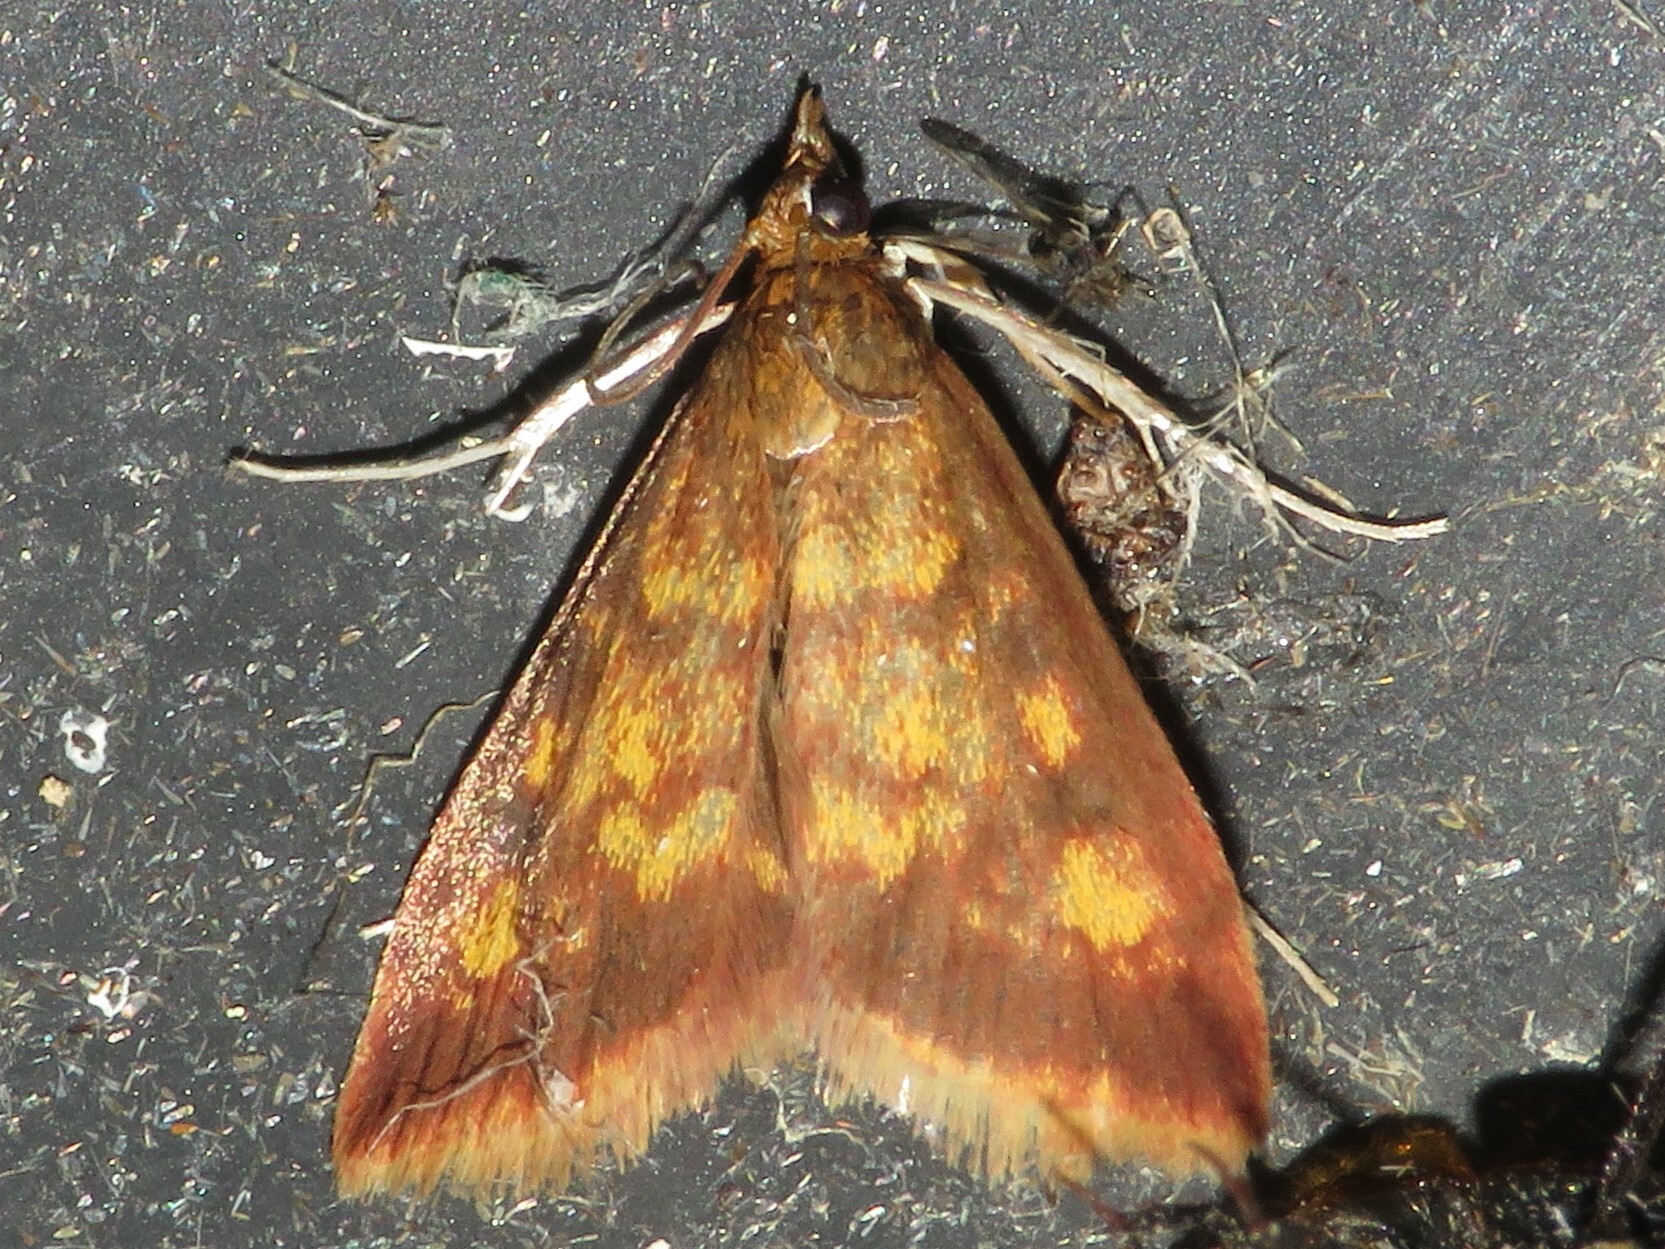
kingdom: Animalia
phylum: Arthropoda
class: Insecta
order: Lepidoptera
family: Crambidae
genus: Pyrausta
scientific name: Pyrausta acrionalis
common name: Mint-loving pyrausta moth
